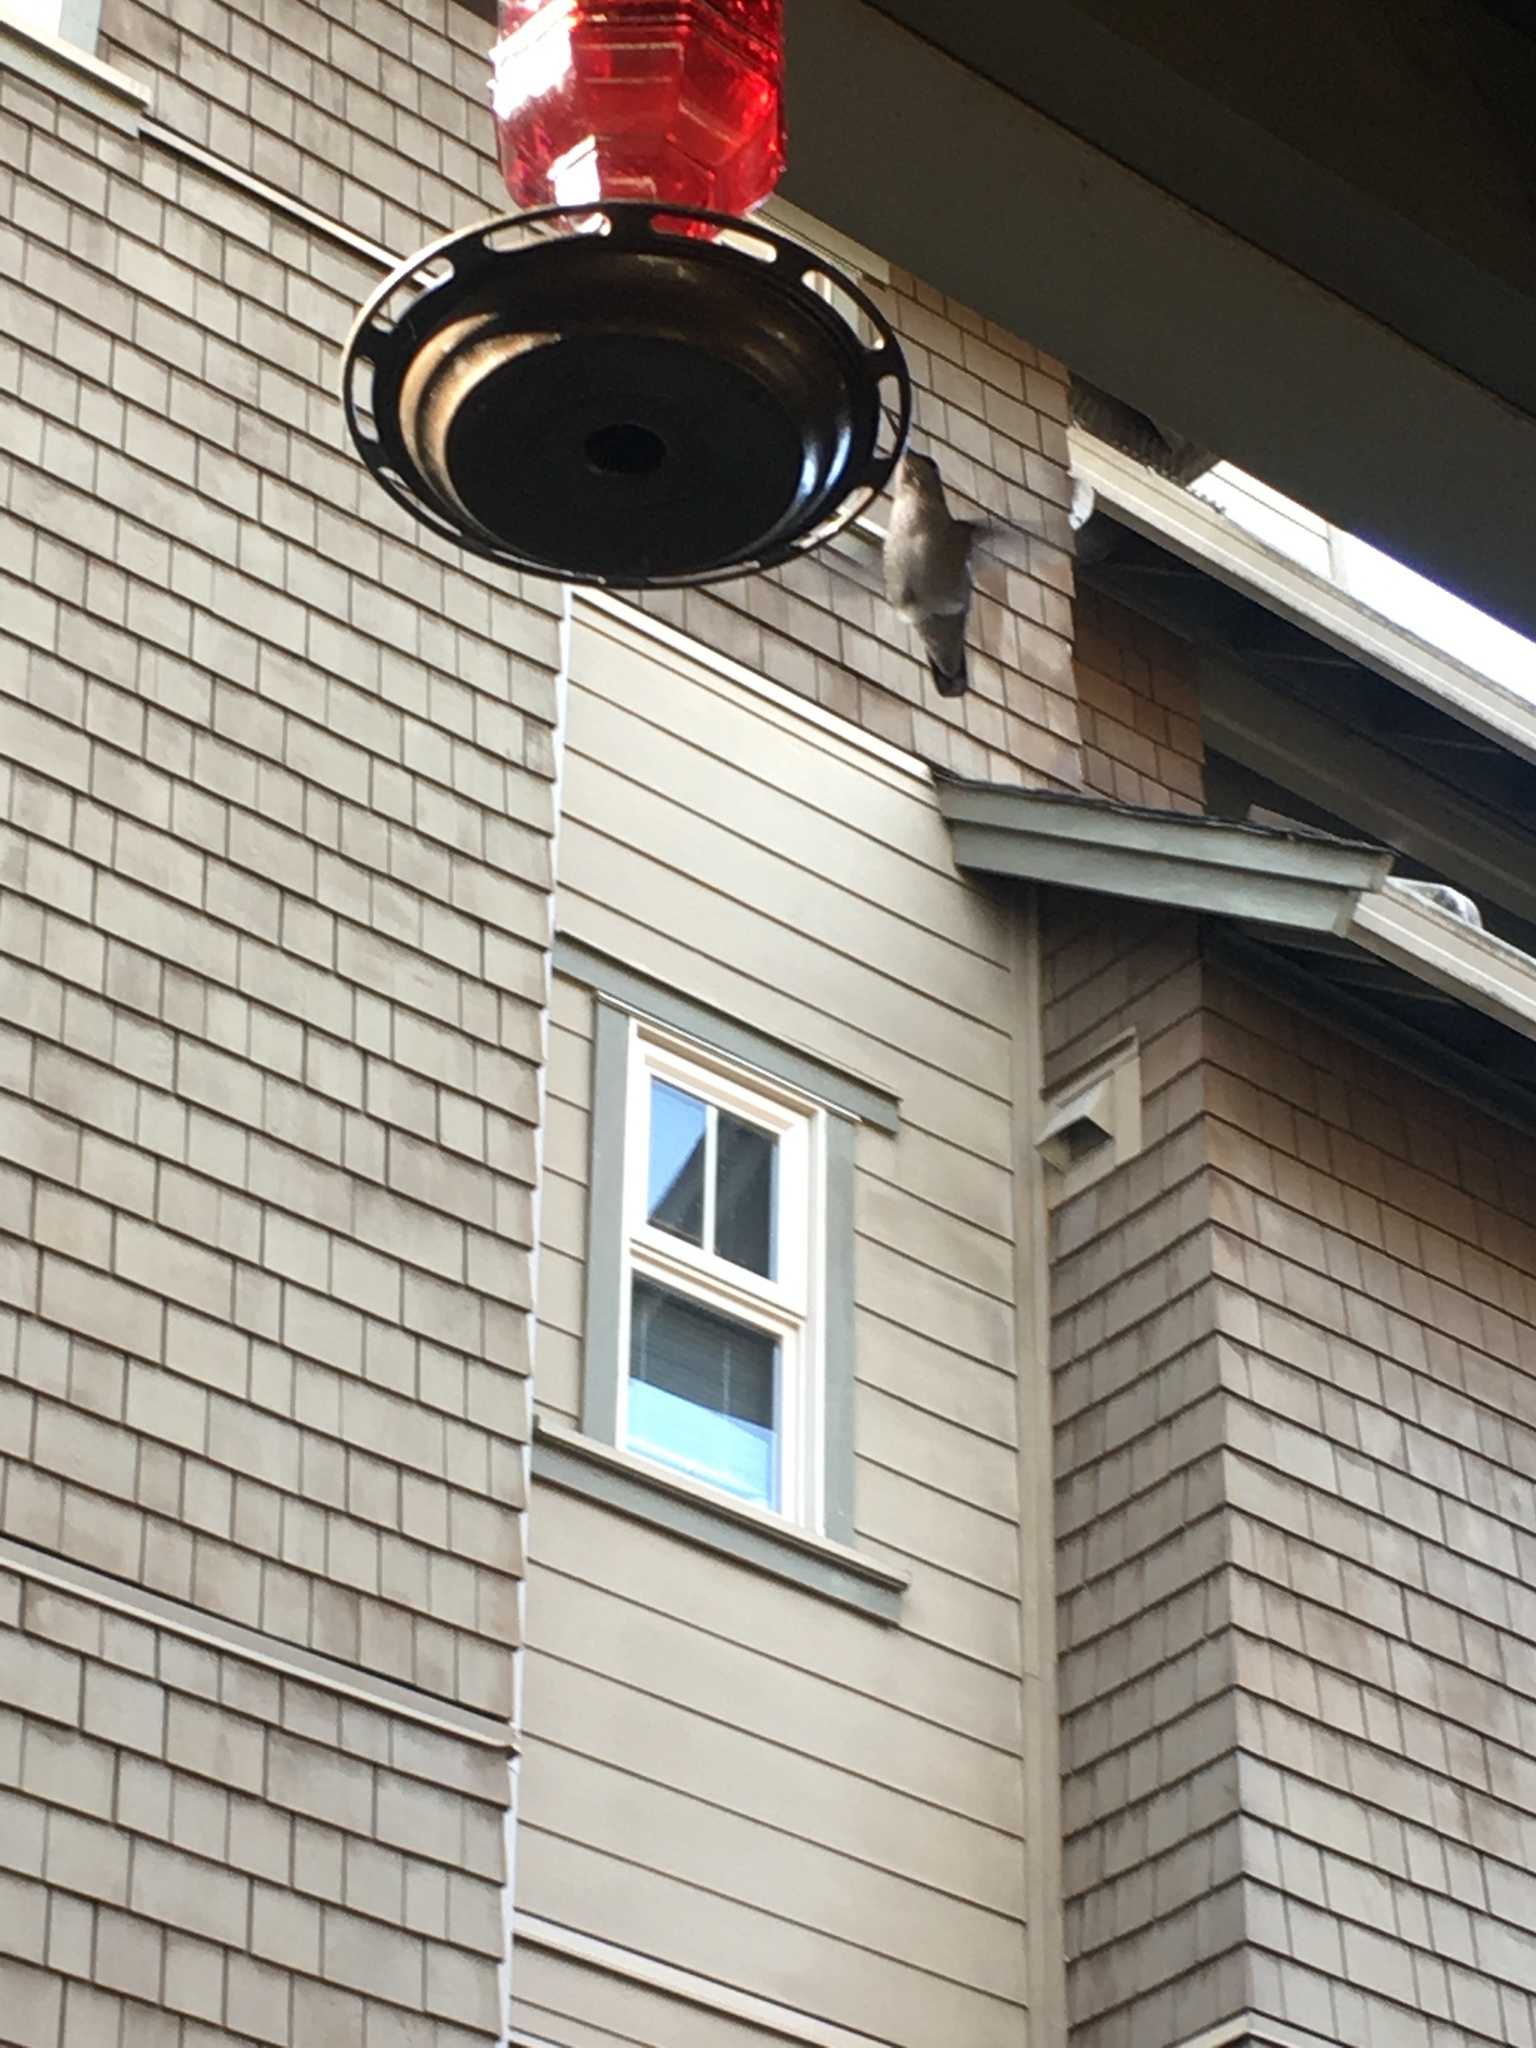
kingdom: Animalia
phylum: Chordata
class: Aves
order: Apodiformes
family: Trochilidae
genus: Calypte
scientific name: Calypte anna
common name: Anna's hummingbird
